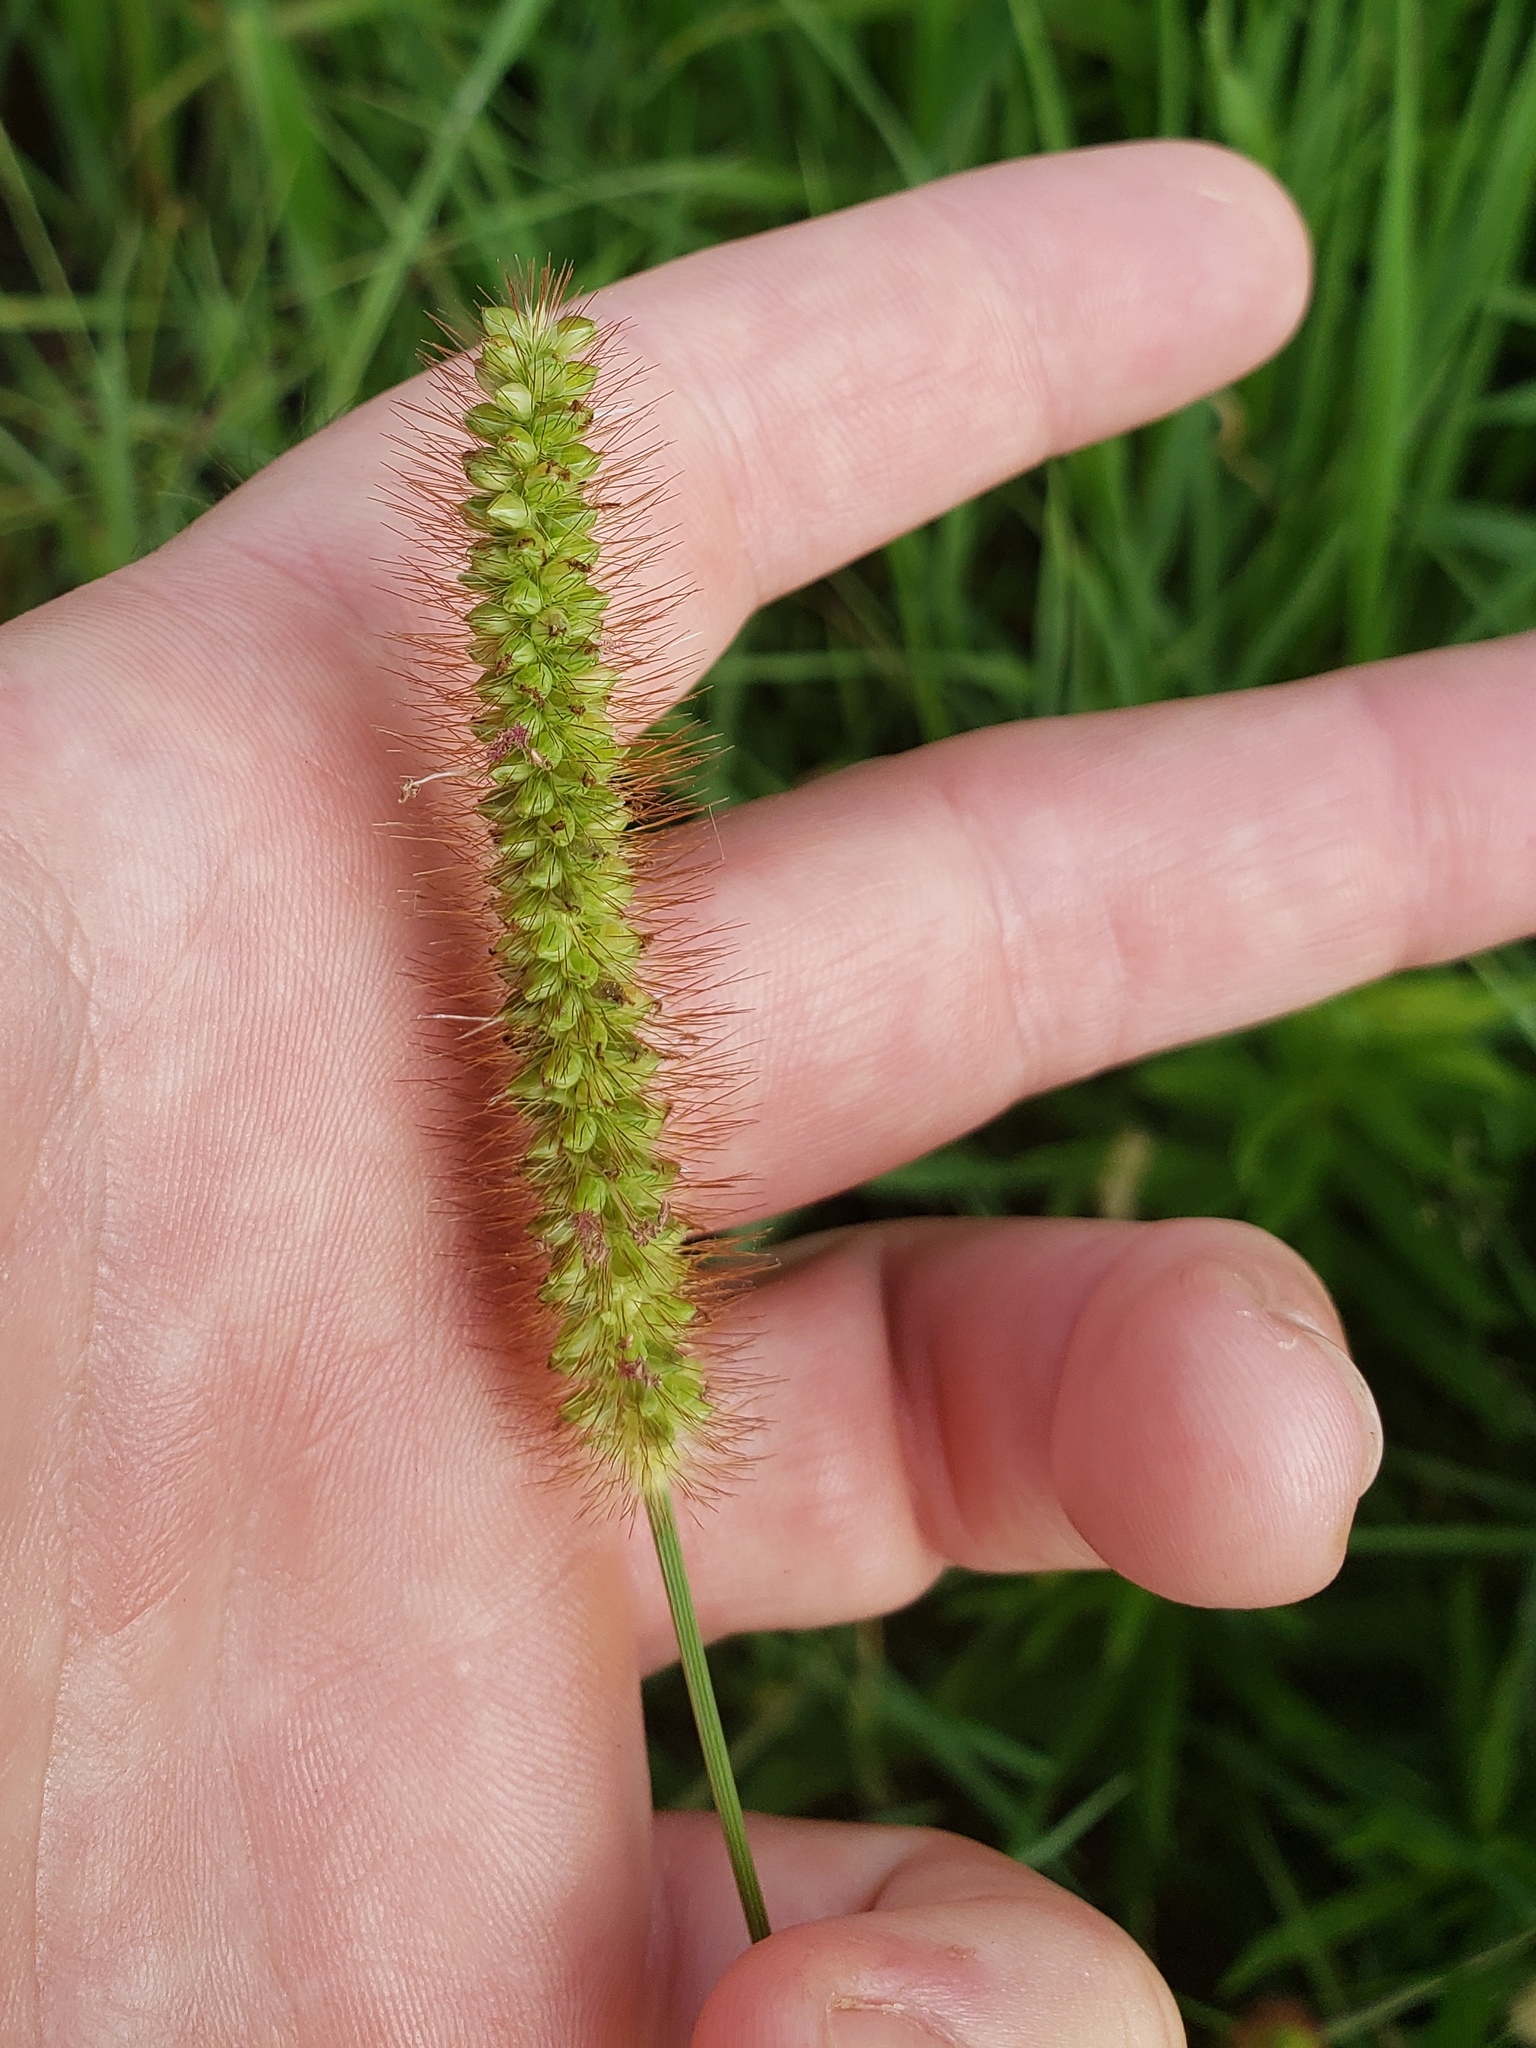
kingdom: Plantae
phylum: Tracheophyta
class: Liliopsida
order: Poales
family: Poaceae
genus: Setaria
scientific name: Setaria pumila
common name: Yellow bristle-grass
